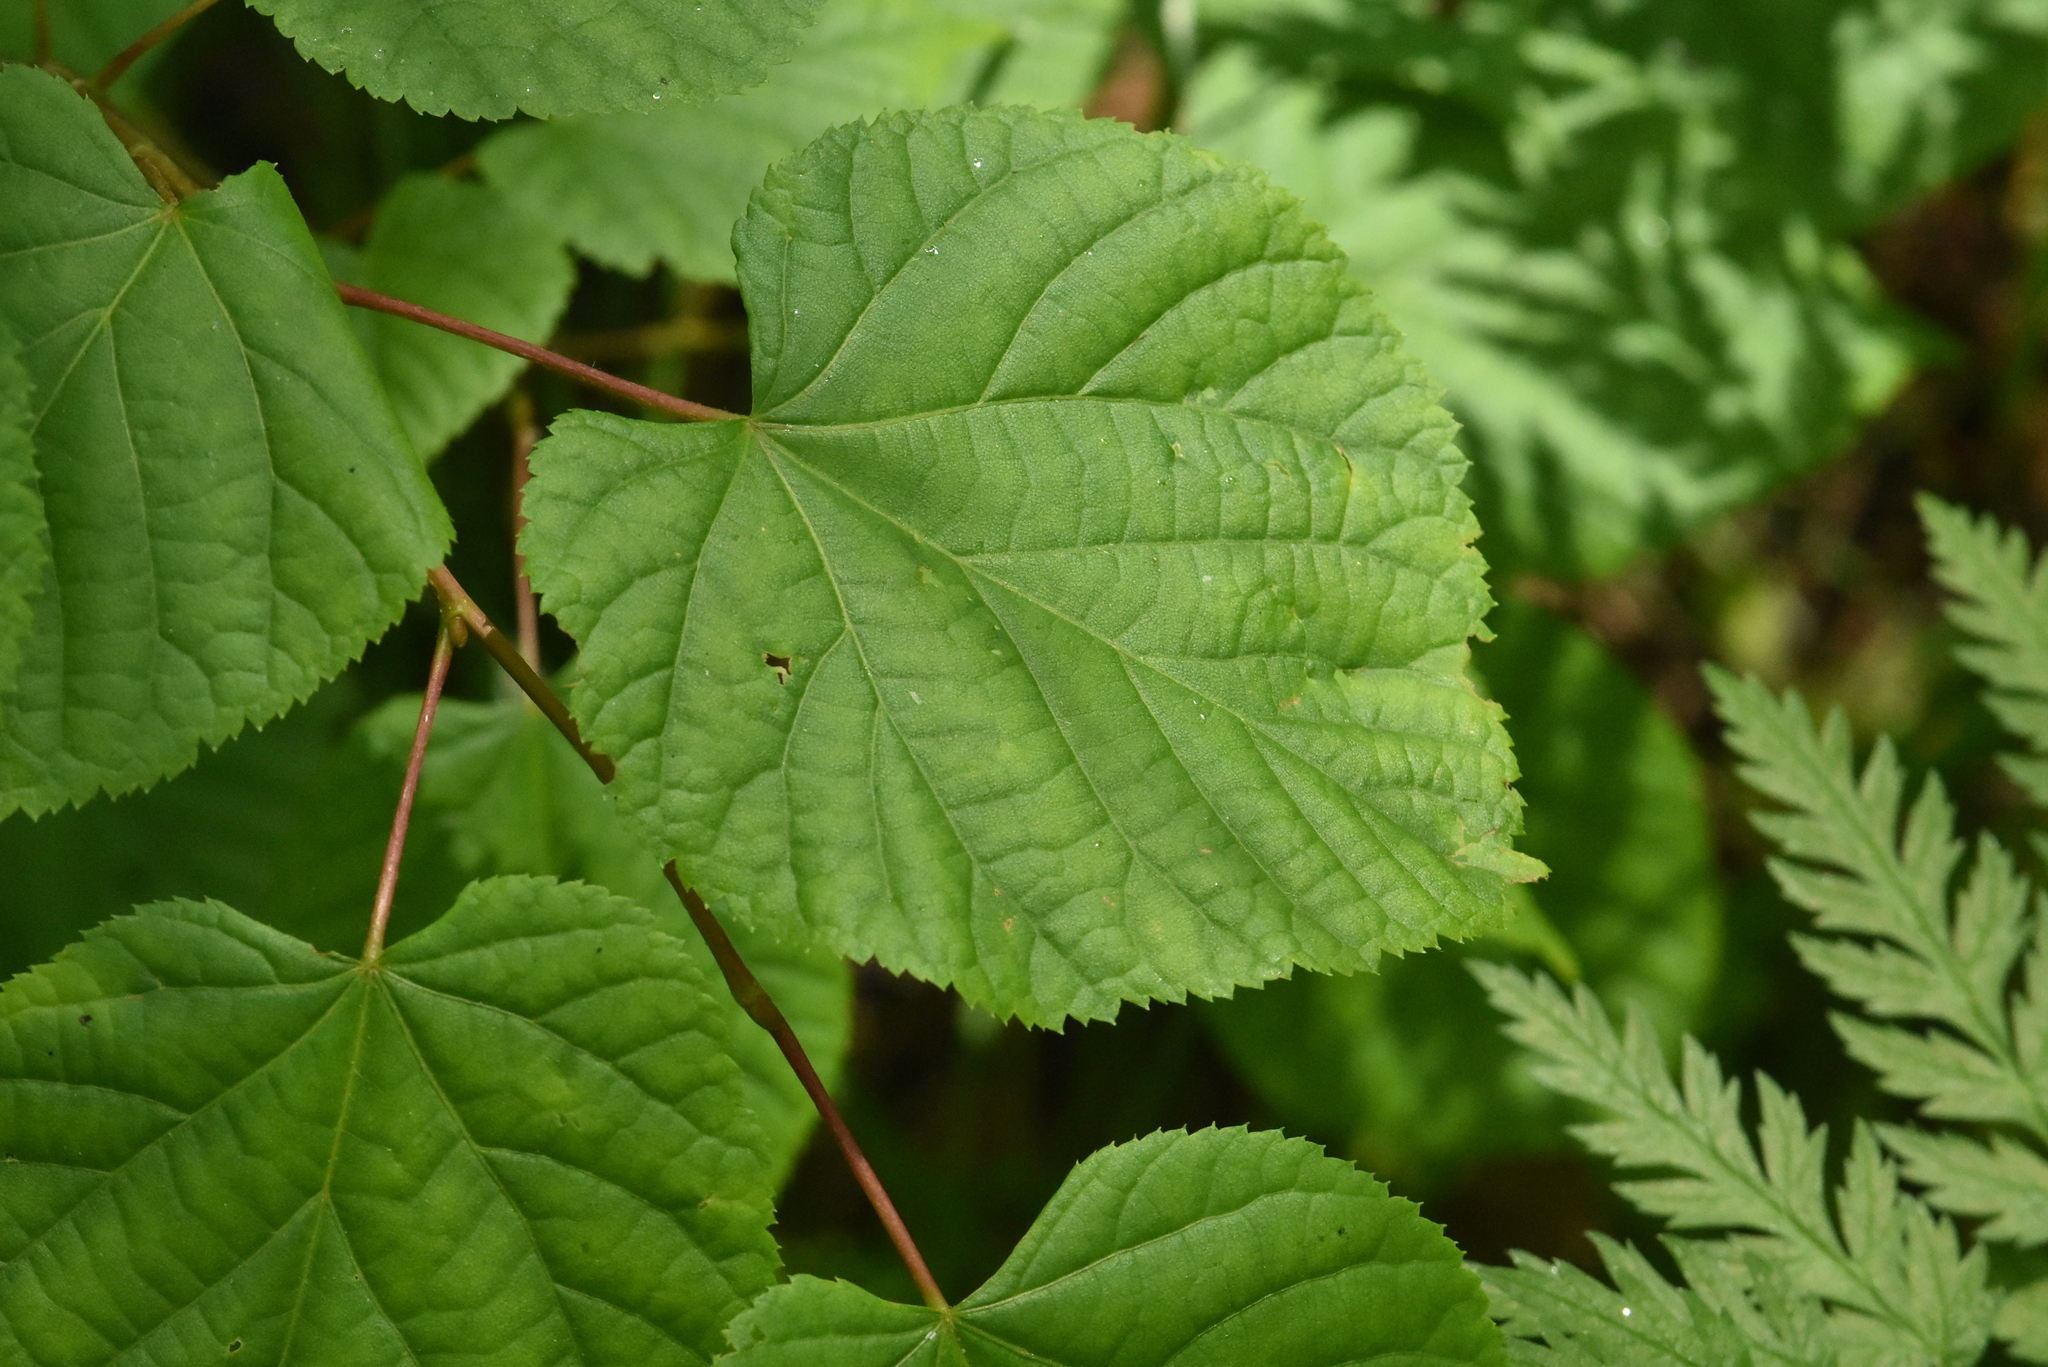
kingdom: Plantae
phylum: Tracheophyta
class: Magnoliopsida
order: Malvales
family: Malvaceae
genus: Tilia
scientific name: Tilia cordata
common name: Small-leaved lime
